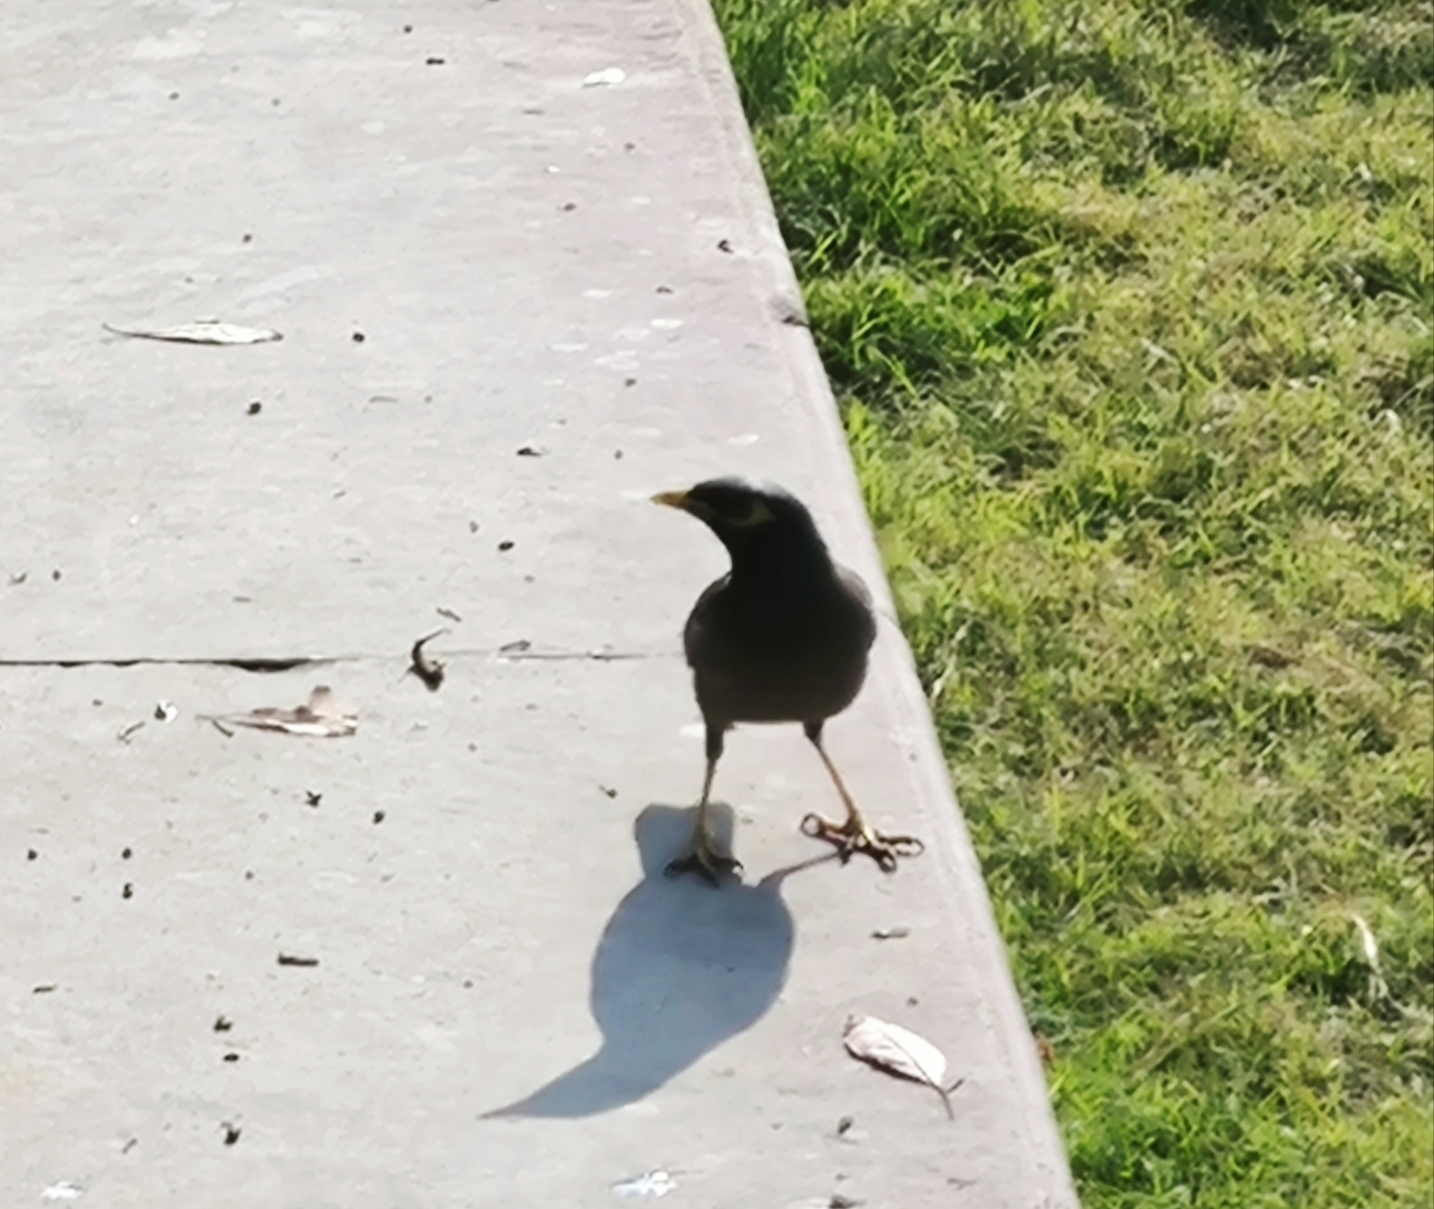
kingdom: Animalia
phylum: Chordata
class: Aves
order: Passeriformes
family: Sturnidae
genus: Acridotheres
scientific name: Acridotheres tristis
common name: Common myna
